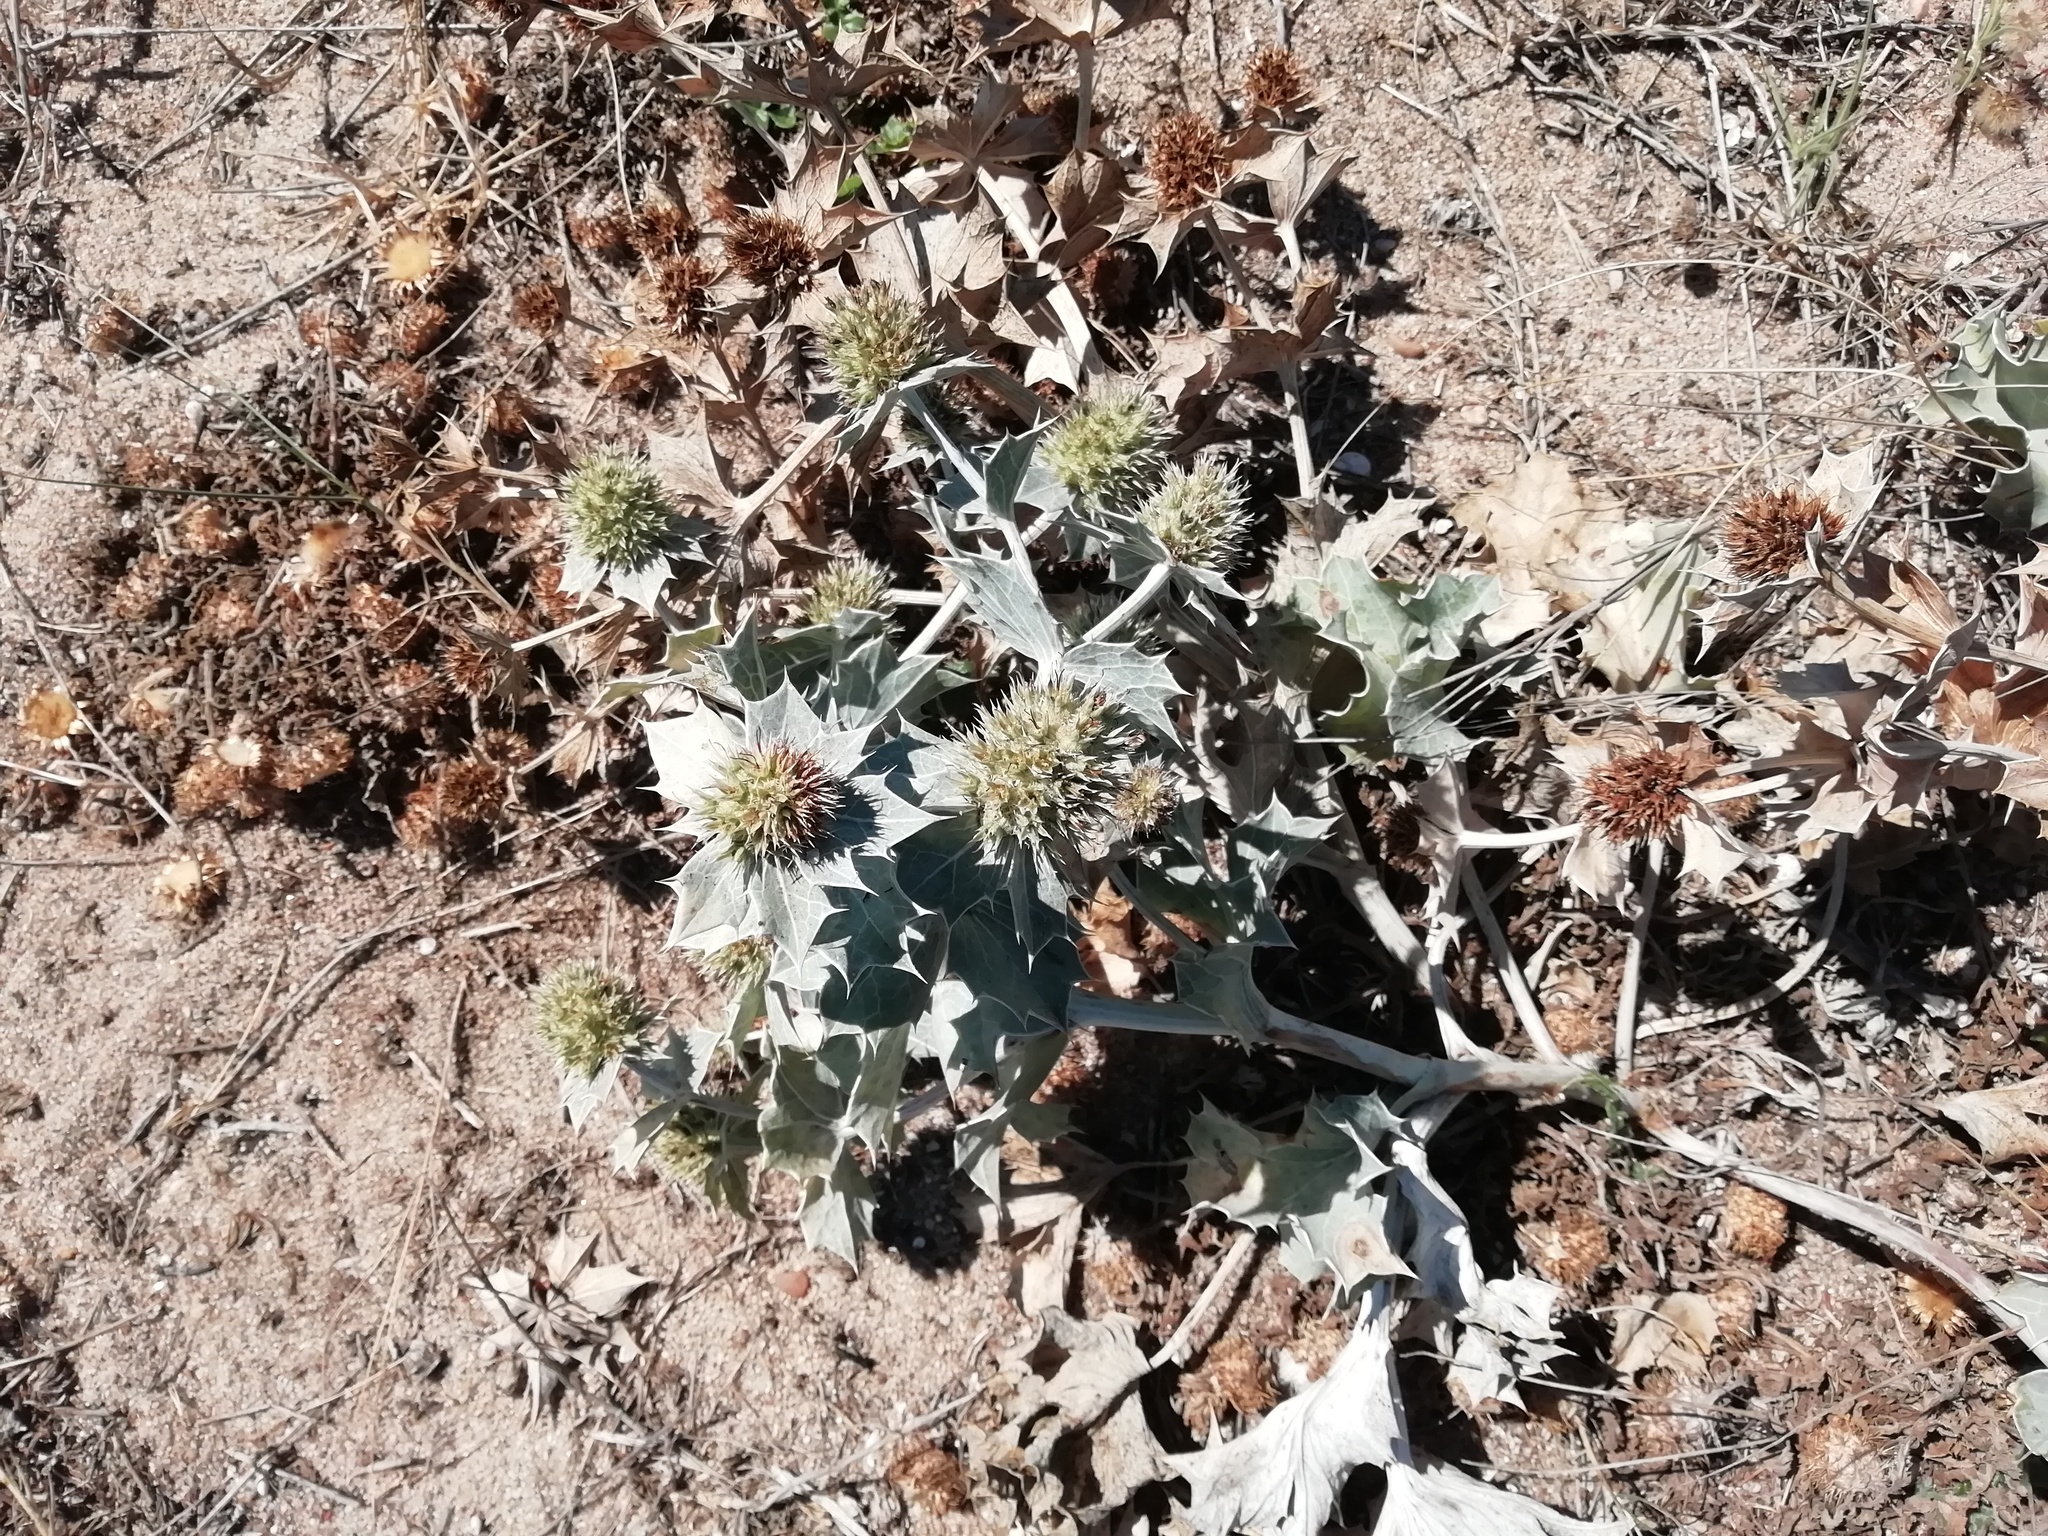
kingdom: Plantae
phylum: Tracheophyta
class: Magnoliopsida
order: Apiales
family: Apiaceae
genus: Eryngium
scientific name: Eryngium maritimum
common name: Sea-holly
